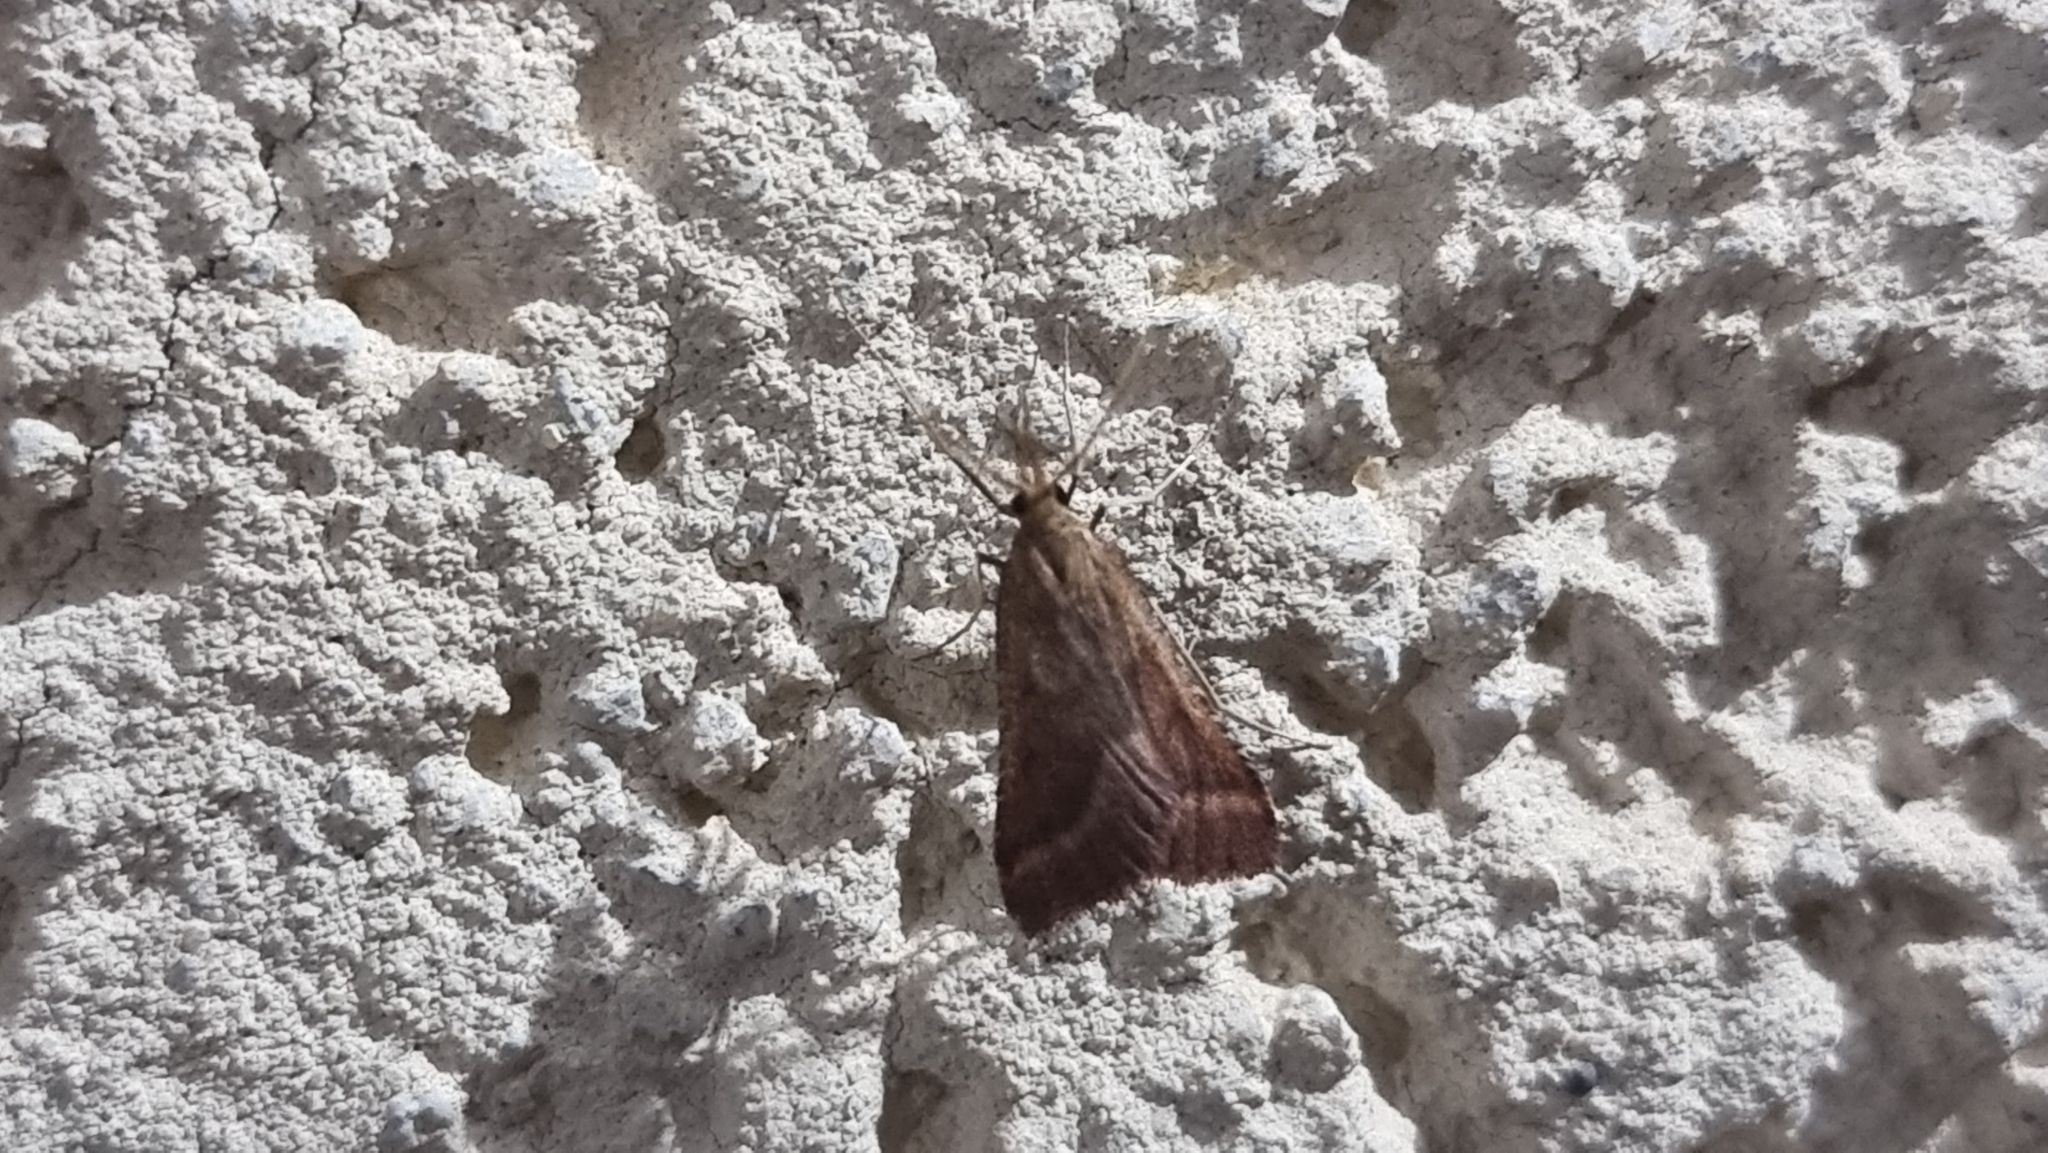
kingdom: Animalia
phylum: Arthropoda
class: Insecta
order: Lepidoptera
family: Pyralidae
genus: Synaphe
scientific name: Synaphe punctalis
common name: Long-legged tabby
